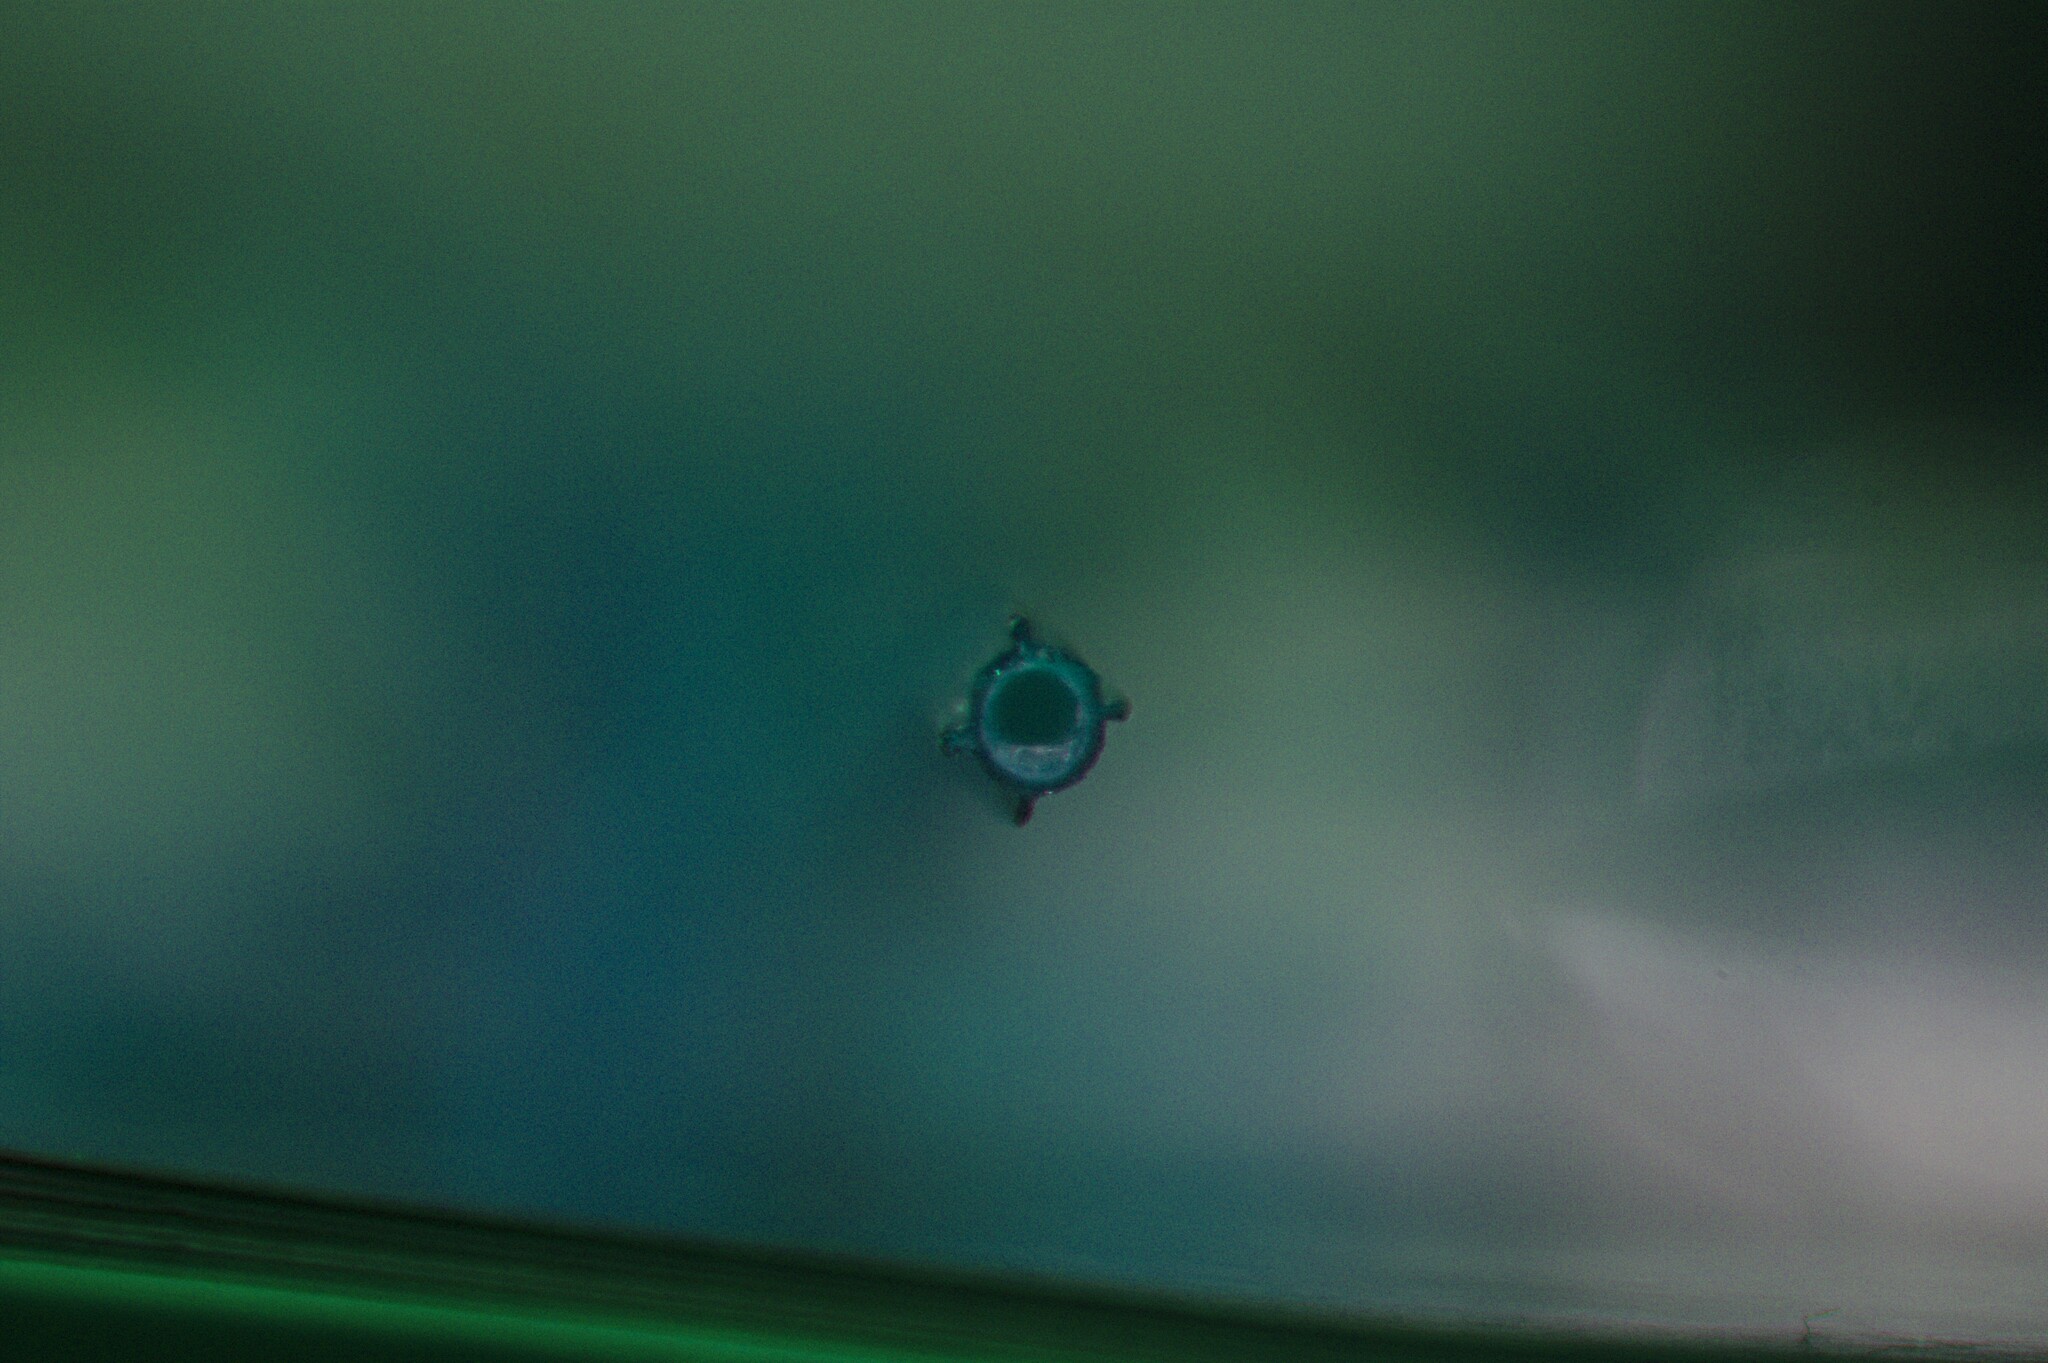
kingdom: Plantae
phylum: Tracheophyta
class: Magnoliopsida
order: Gentianales
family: Rubiaceae
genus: Galium
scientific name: Galium mollugo
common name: Hedge bedstraw
